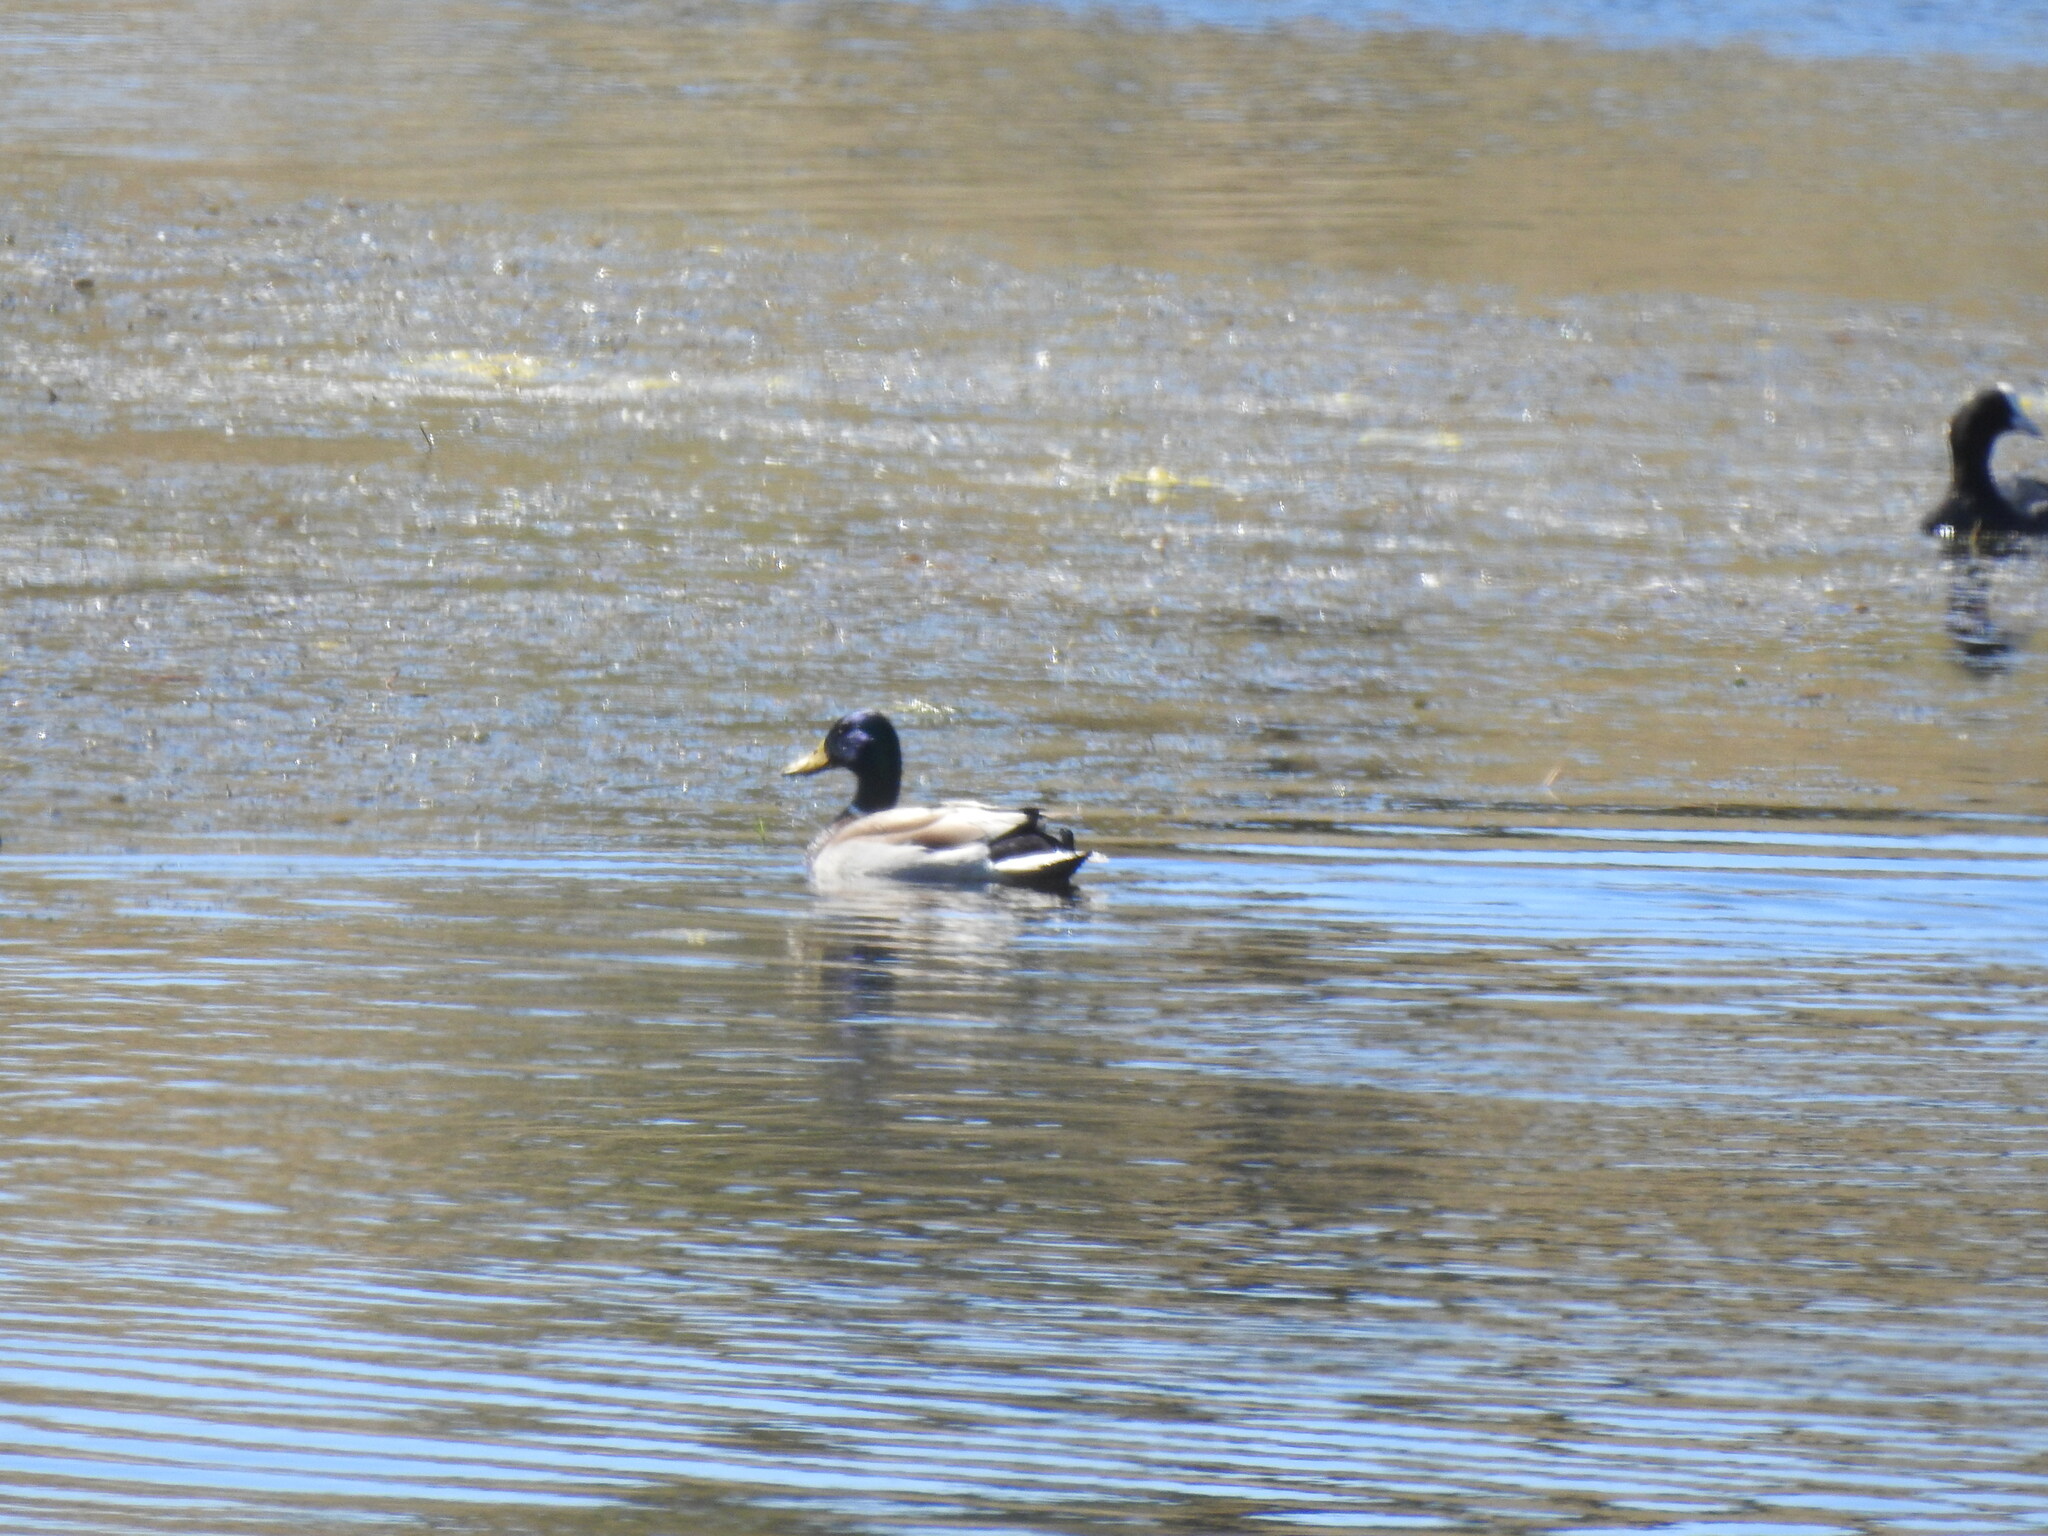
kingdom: Animalia
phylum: Chordata
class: Aves
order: Anseriformes
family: Anatidae
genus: Anas
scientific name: Anas platyrhynchos
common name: Mallard
